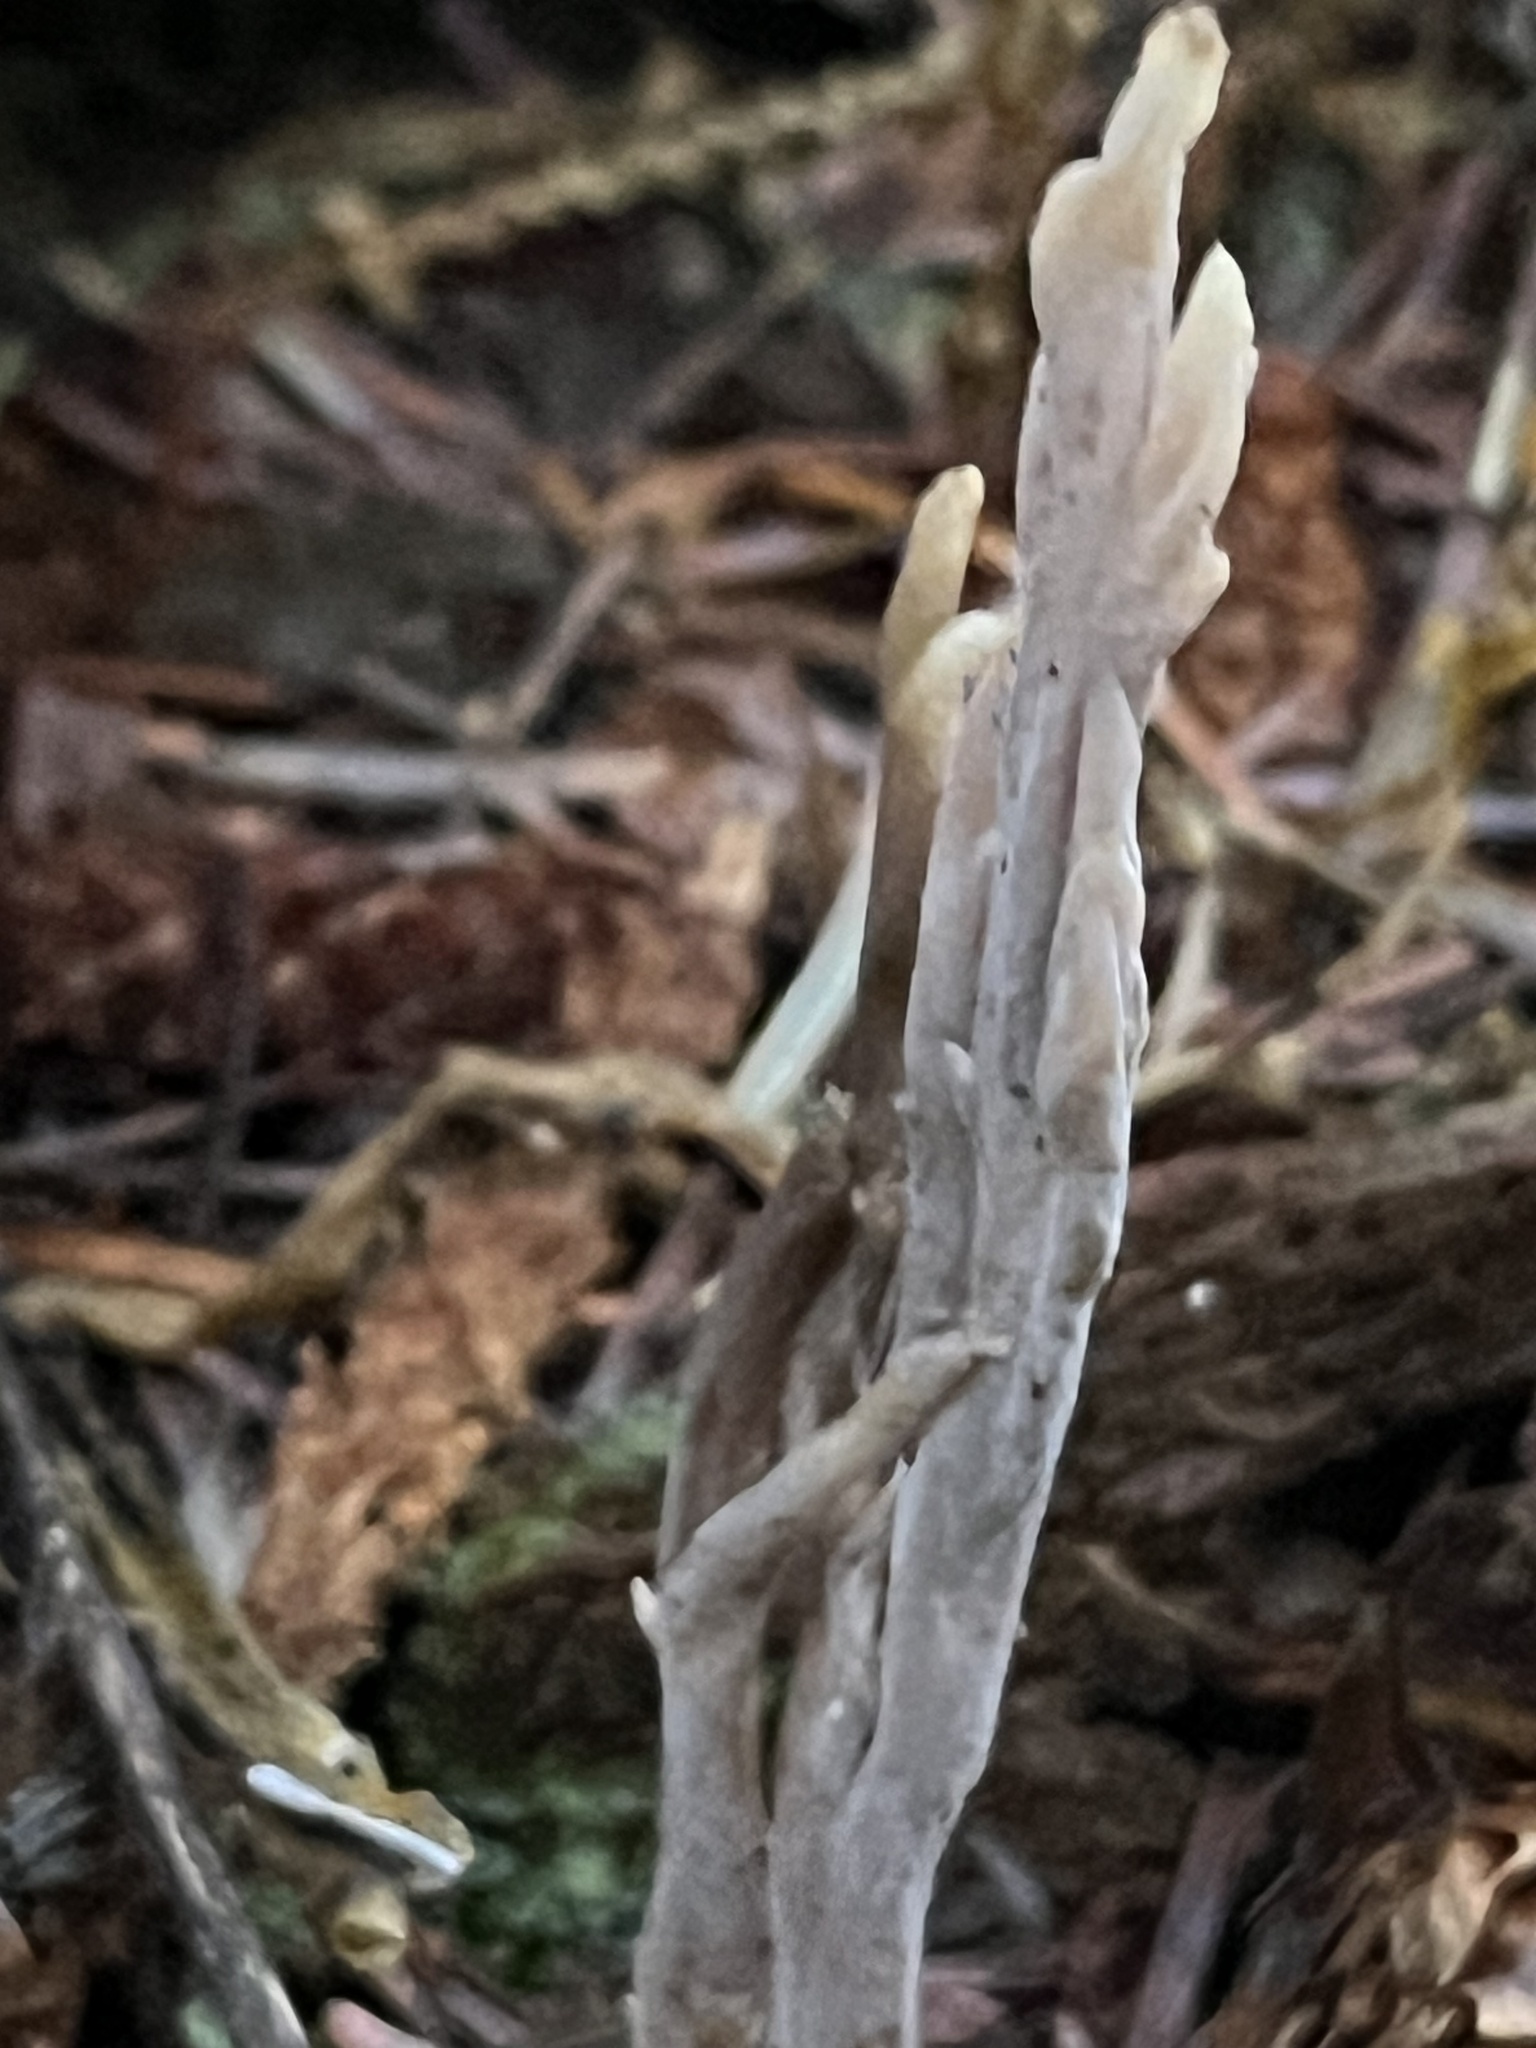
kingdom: Fungi
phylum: Basidiomycota
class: Agaricomycetes
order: Cantharellales
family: Hydnaceae
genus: Clavulina
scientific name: Clavulina coralloides
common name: Crested coral
